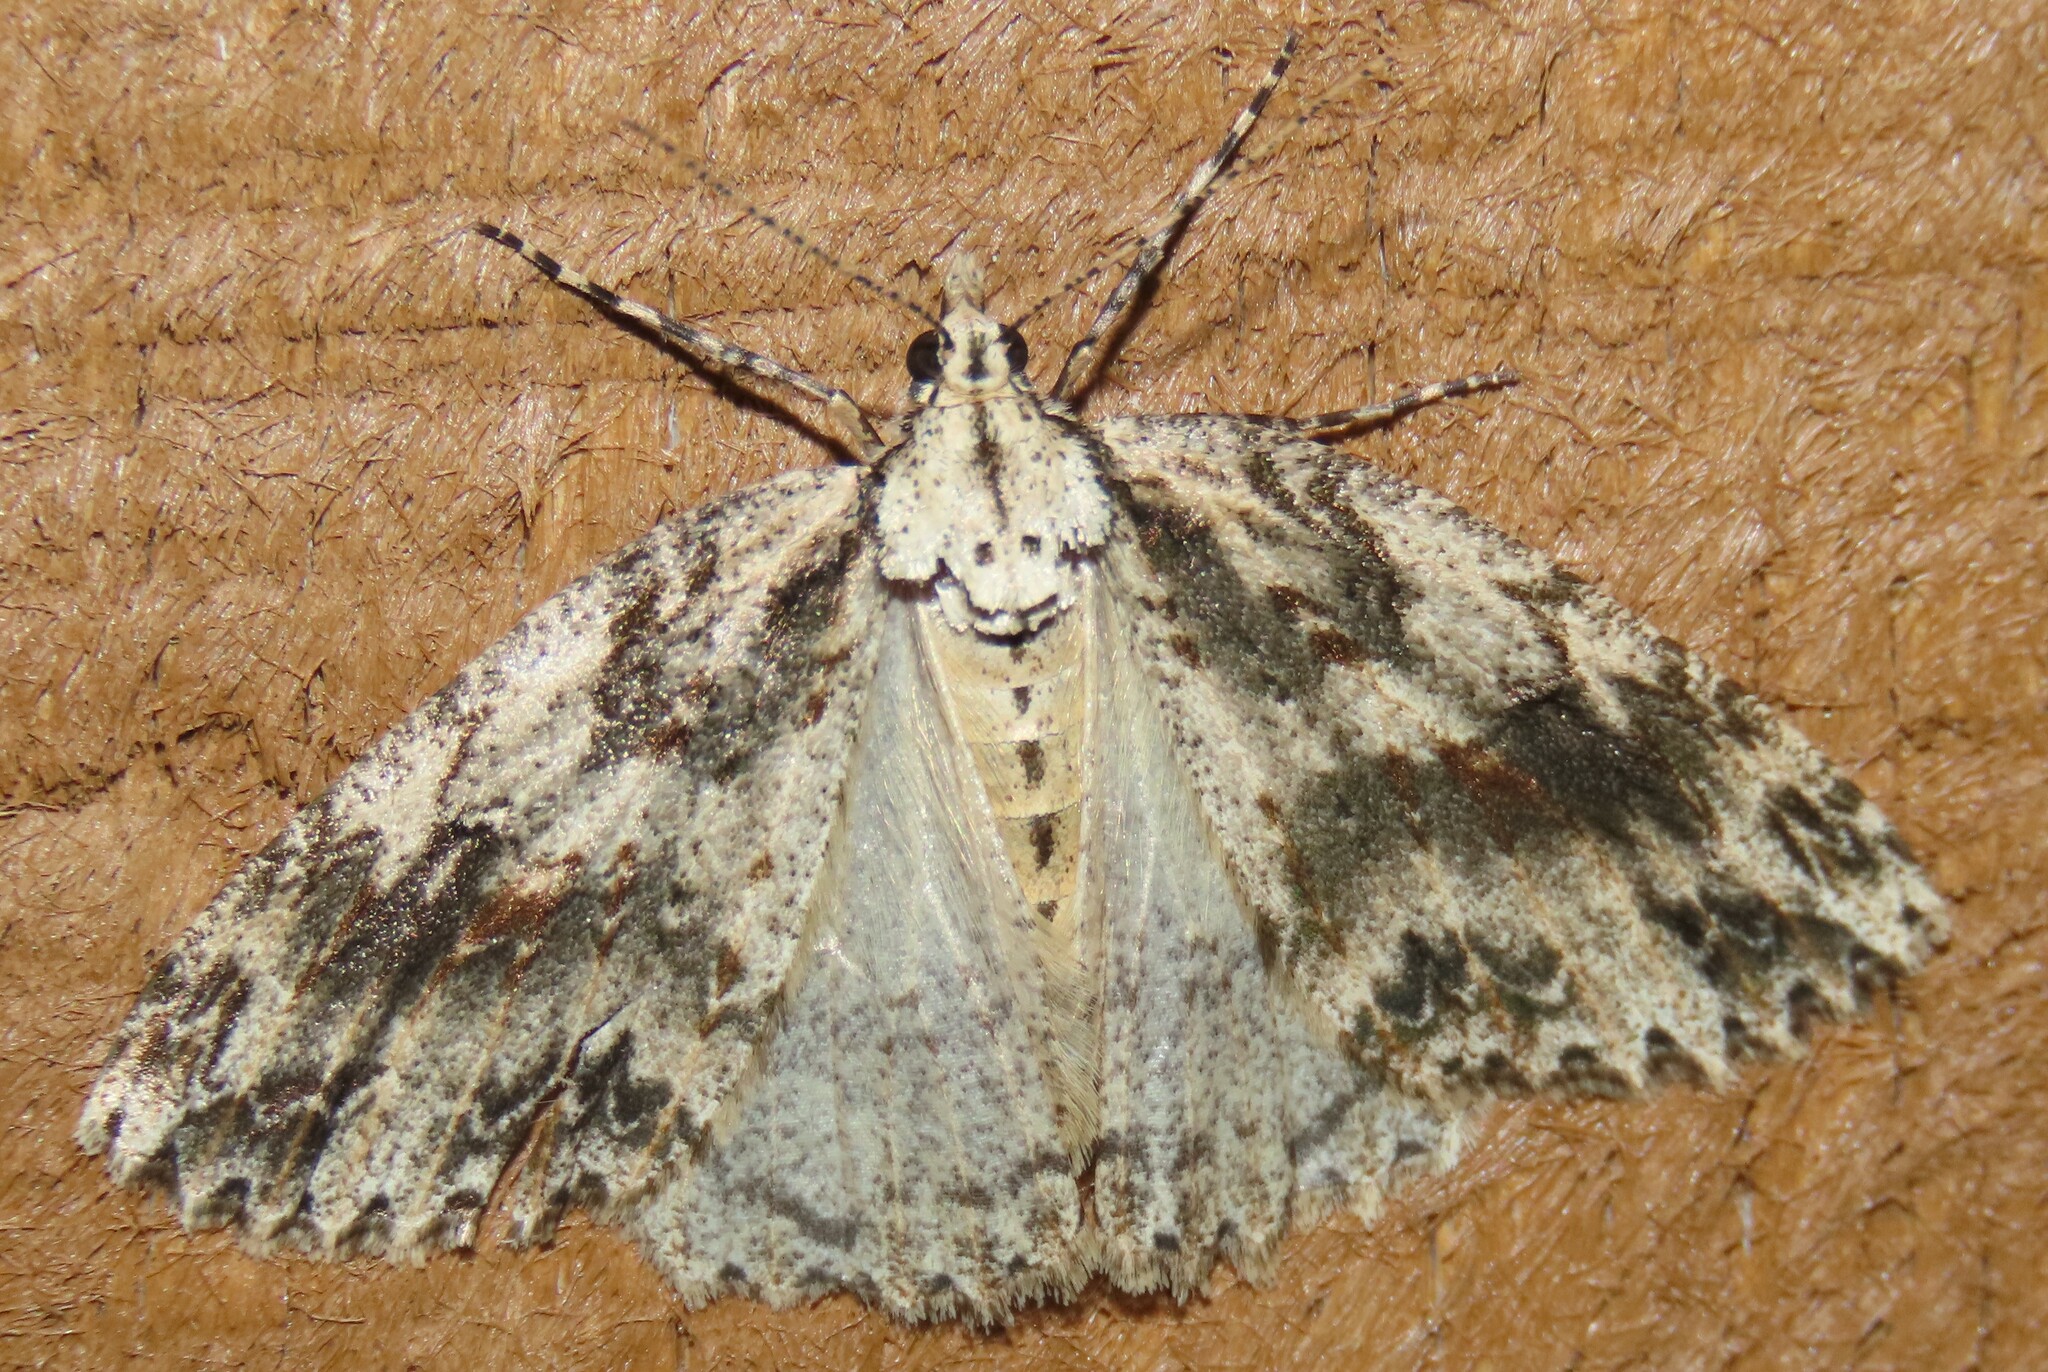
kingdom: Animalia
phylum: Arthropoda
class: Insecta
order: Lepidoptera
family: Geometridae
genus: Pseudocoremia
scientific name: Pseudocoremia rudisata
